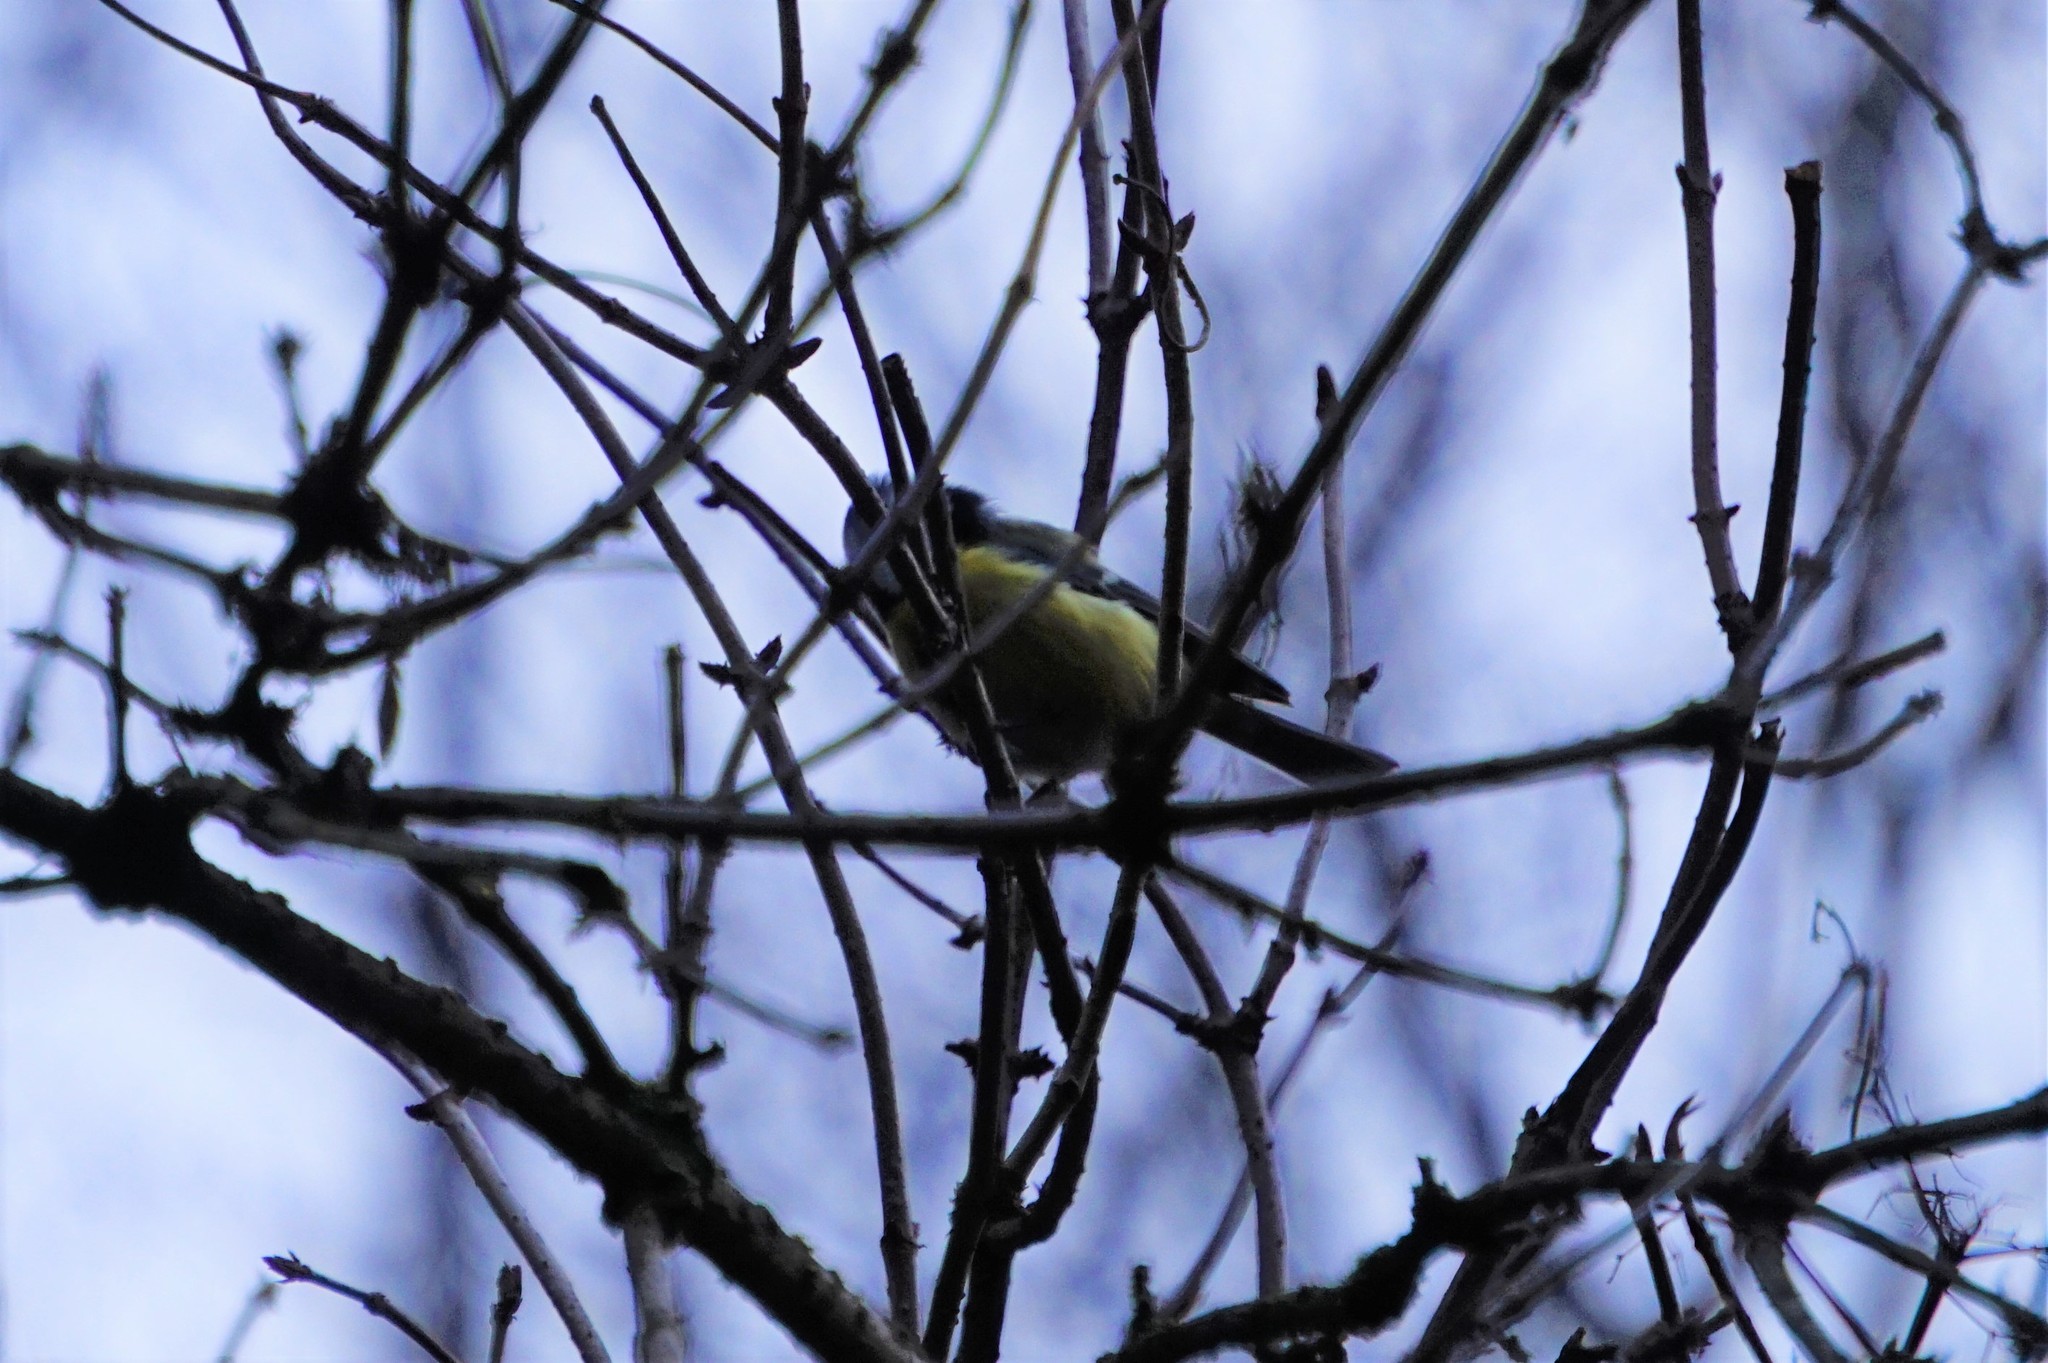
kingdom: Animalia
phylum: Chordata
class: Aves
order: Passeriformes
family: Paridae
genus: Cyanistes
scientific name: Cyanistes caeruleus
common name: Eurasian blue tit
